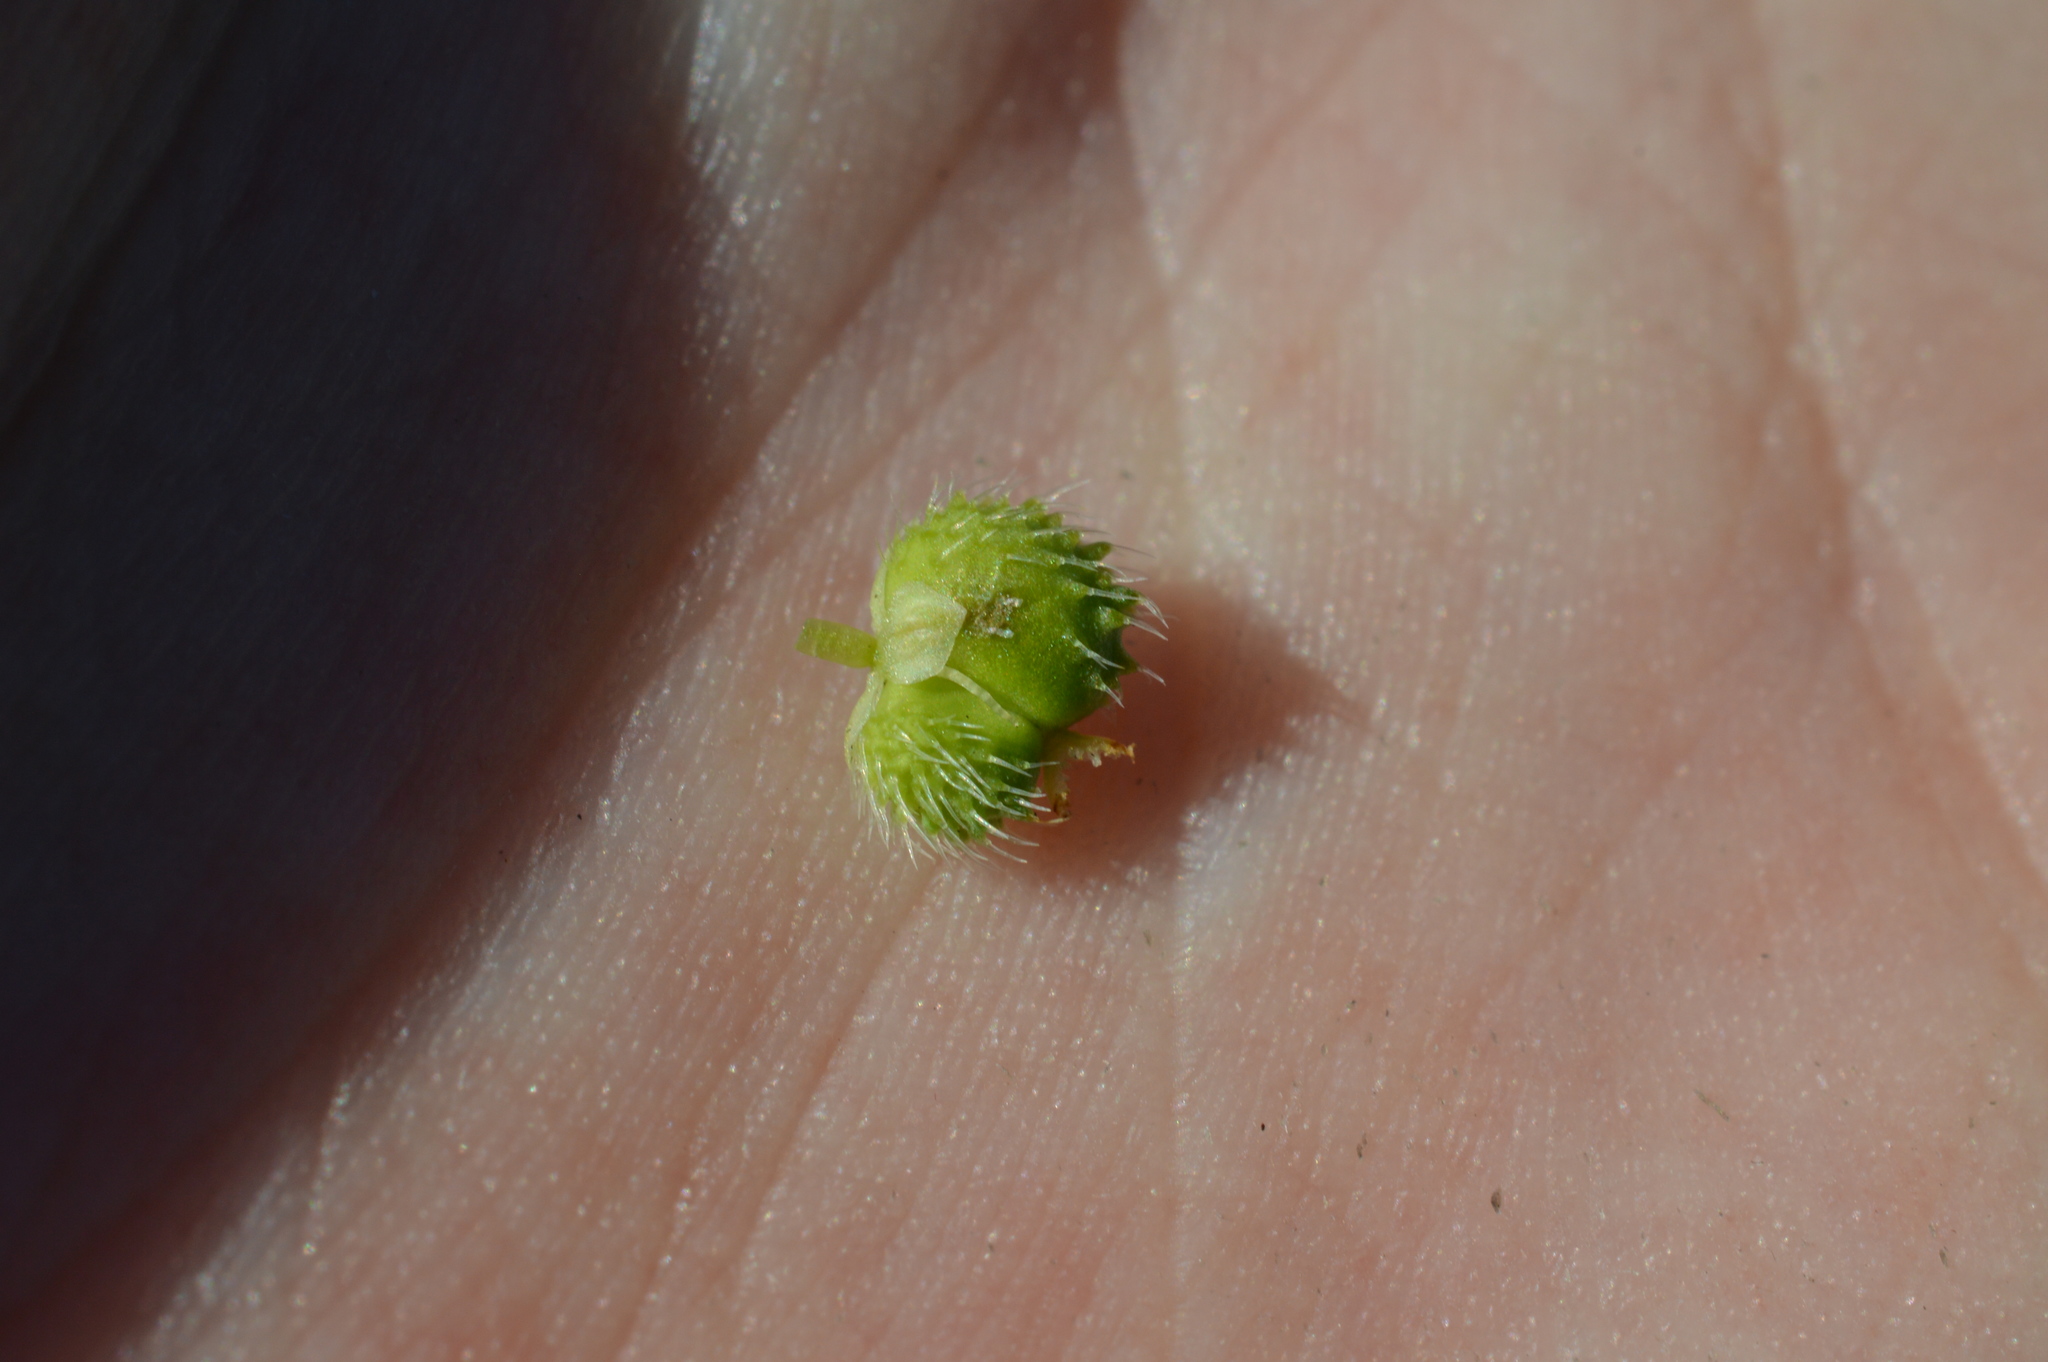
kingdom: Plantae
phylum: Tracheophyta
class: Magnoliopsida
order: Malpighiales
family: Euphorbiaceae
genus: Mercurialis
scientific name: Mercurialis annua
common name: Annual mercury
